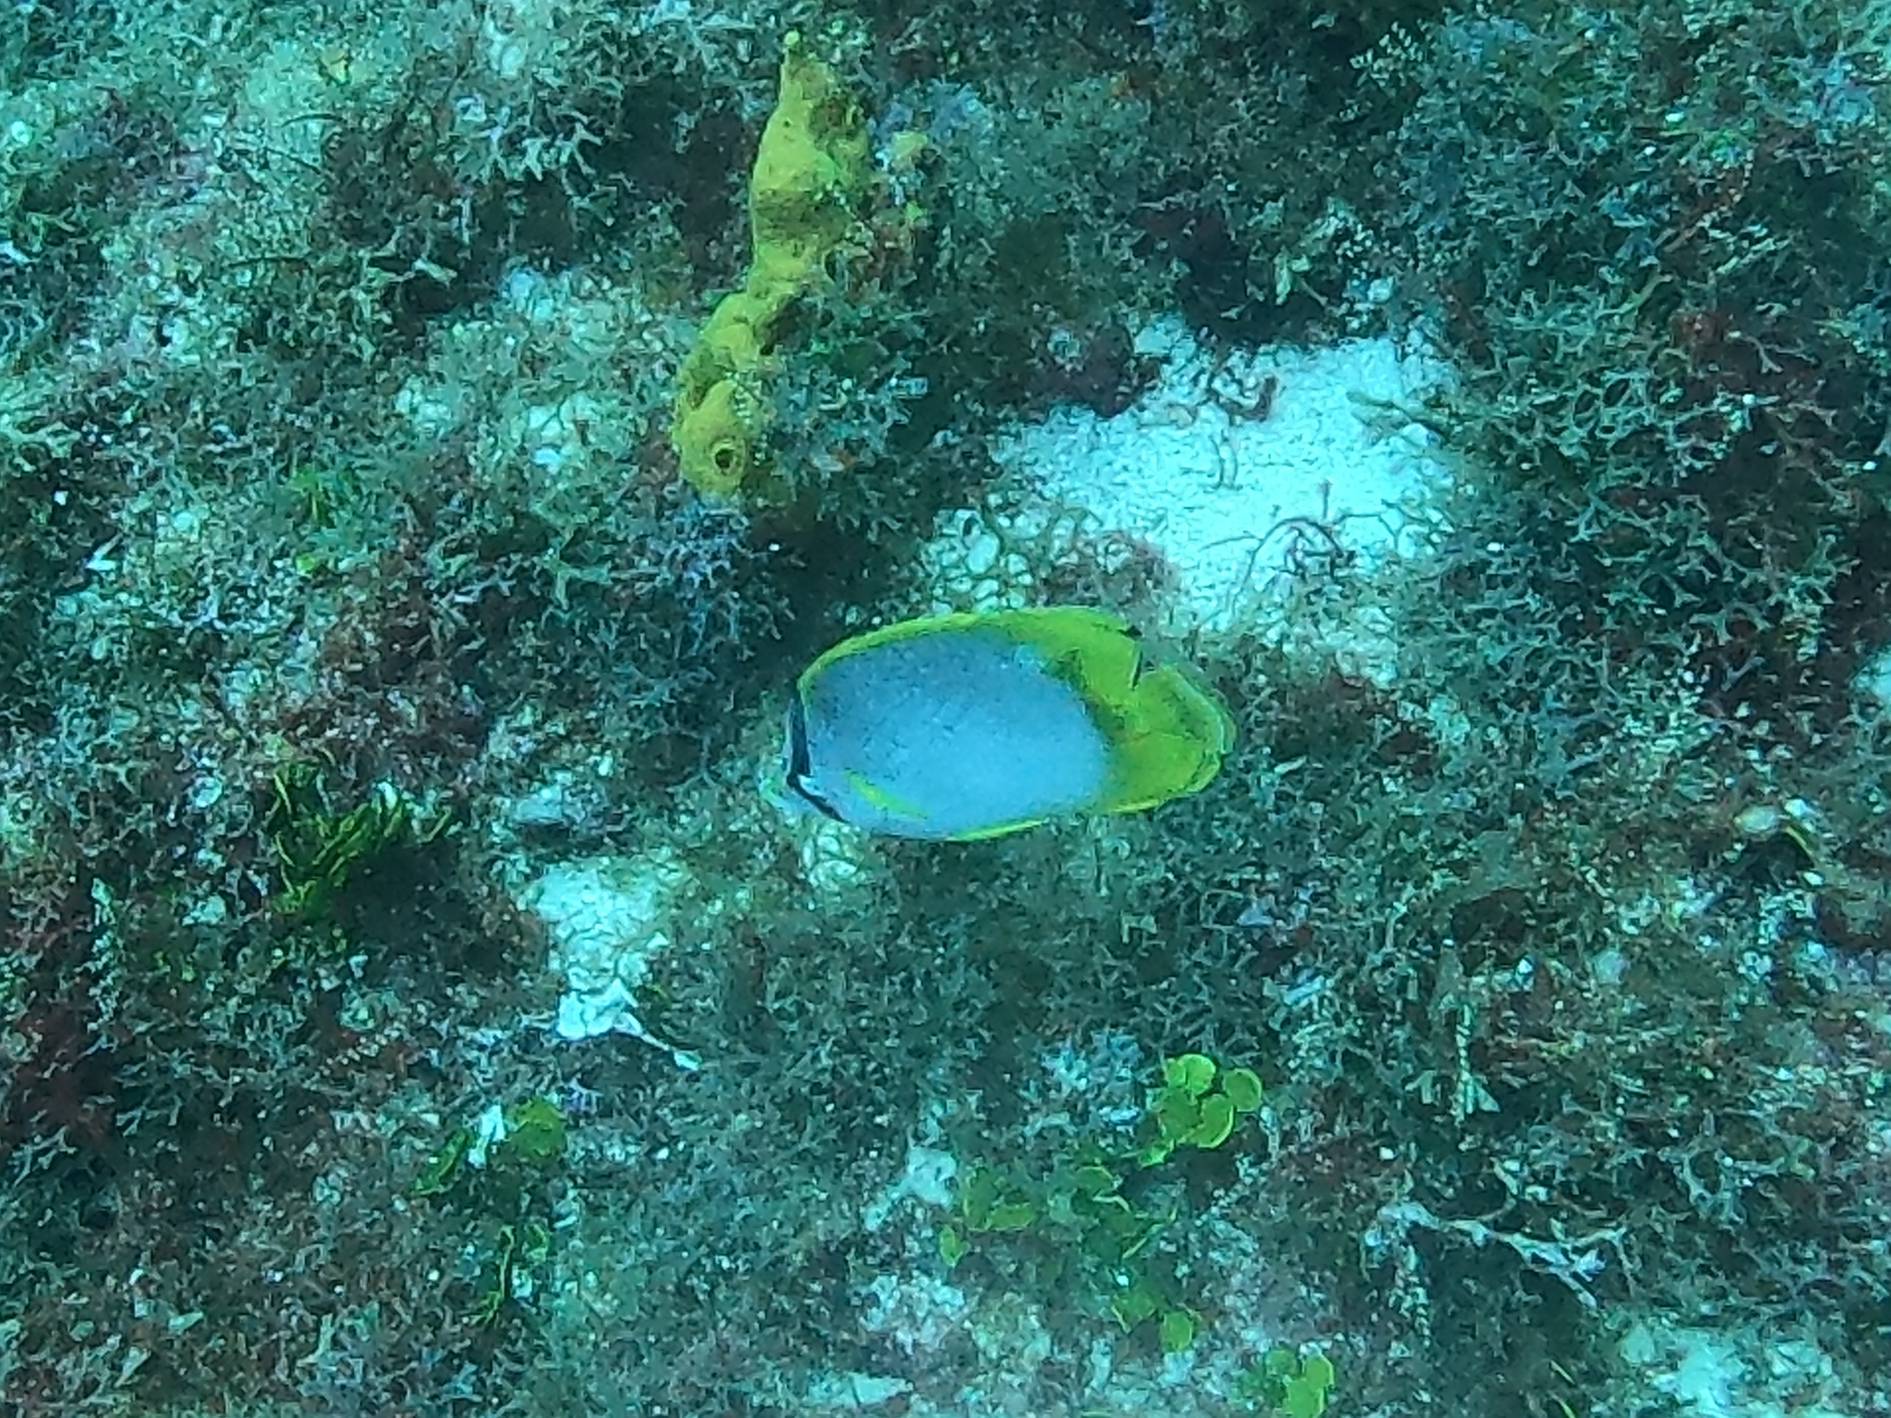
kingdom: Animalia
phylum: Chordata
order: Perciformes
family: Chaetodontidae
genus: Chaetodon
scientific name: Chaetodon ocellatus
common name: Spotfin butterflyfish
